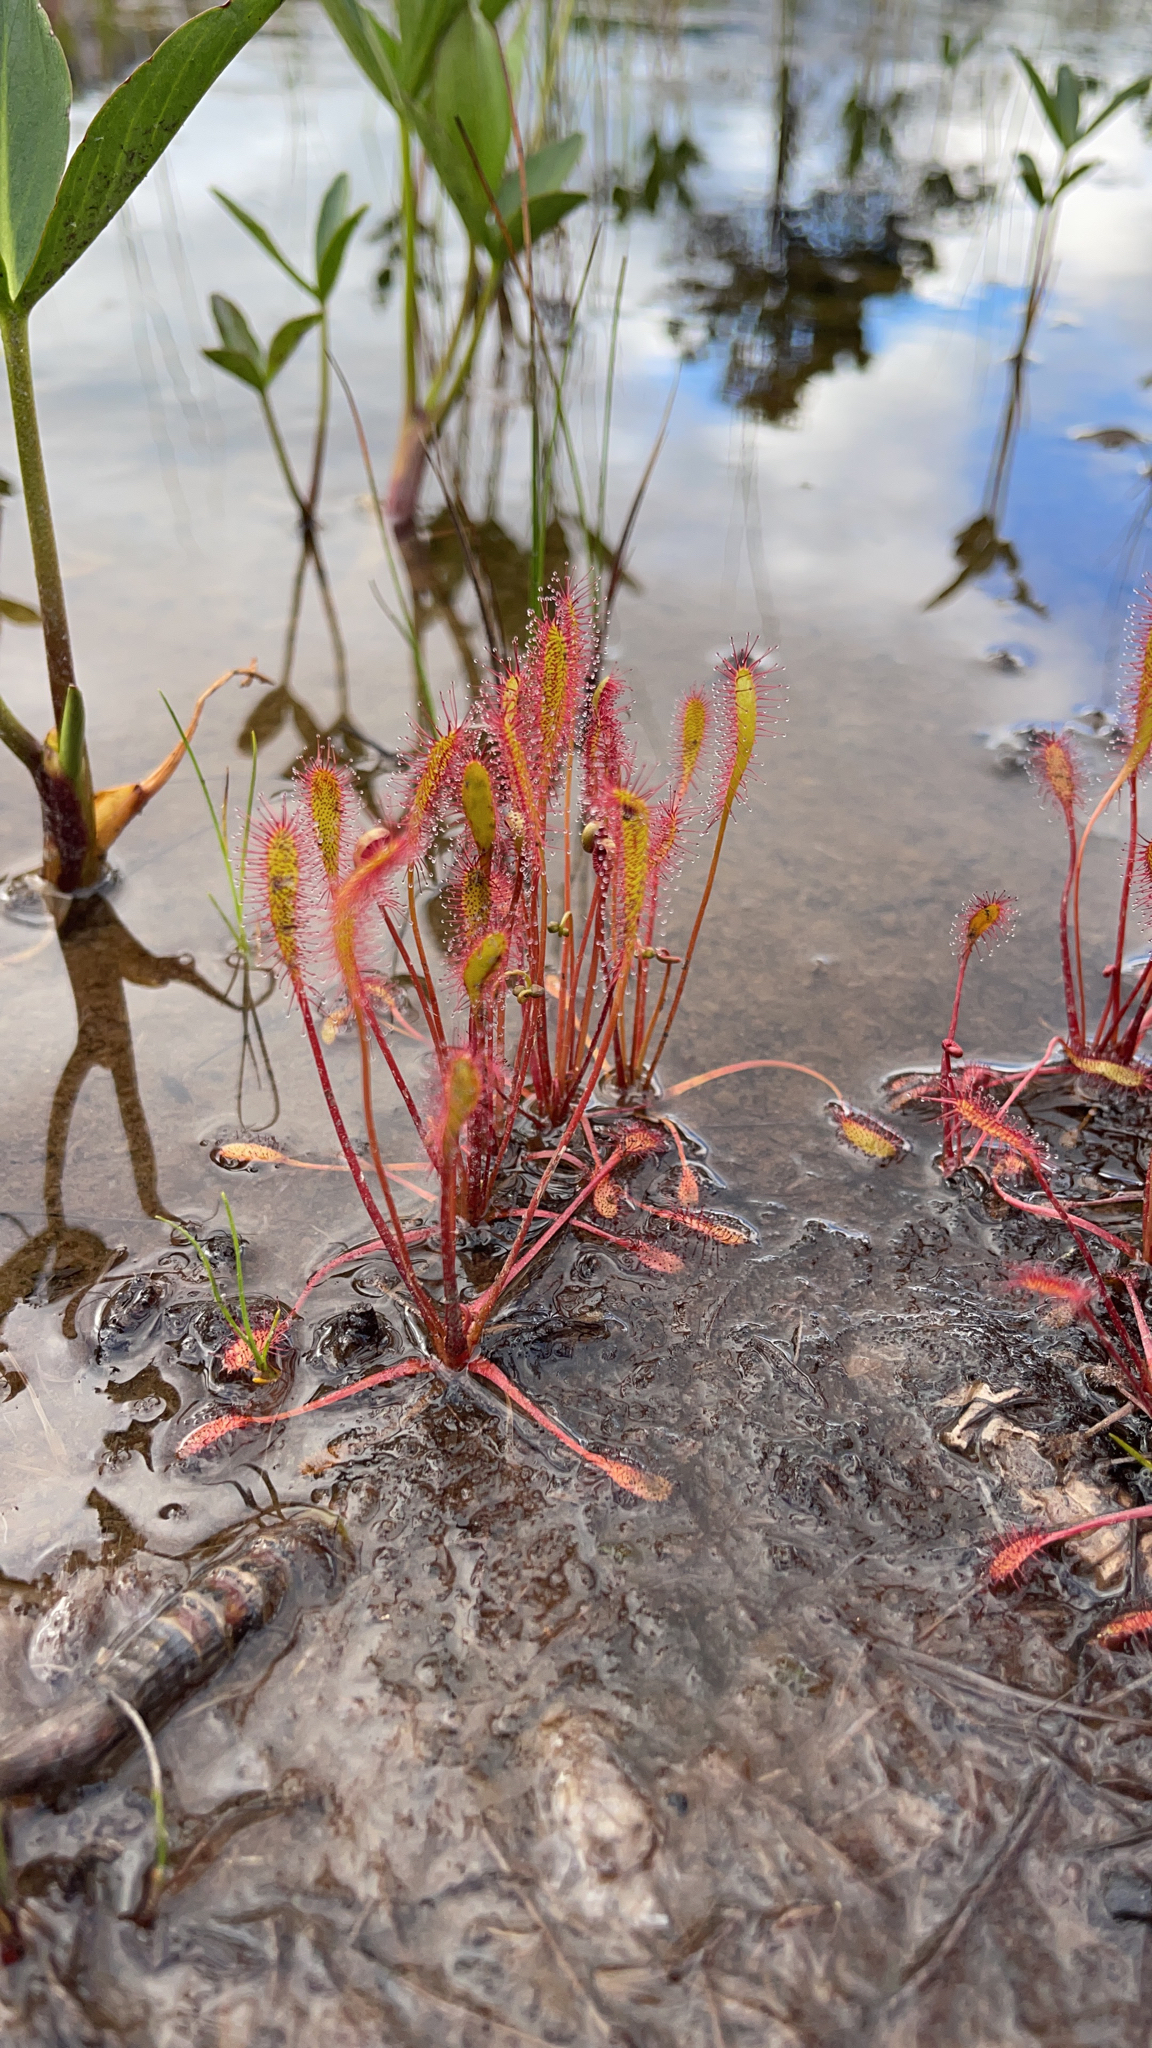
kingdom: Plantae
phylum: Tracheophyta
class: Magnoliopsida
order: Caryophyllales
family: Droseraceae
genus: Drosera
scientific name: Drosera anglica
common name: Great sundew
